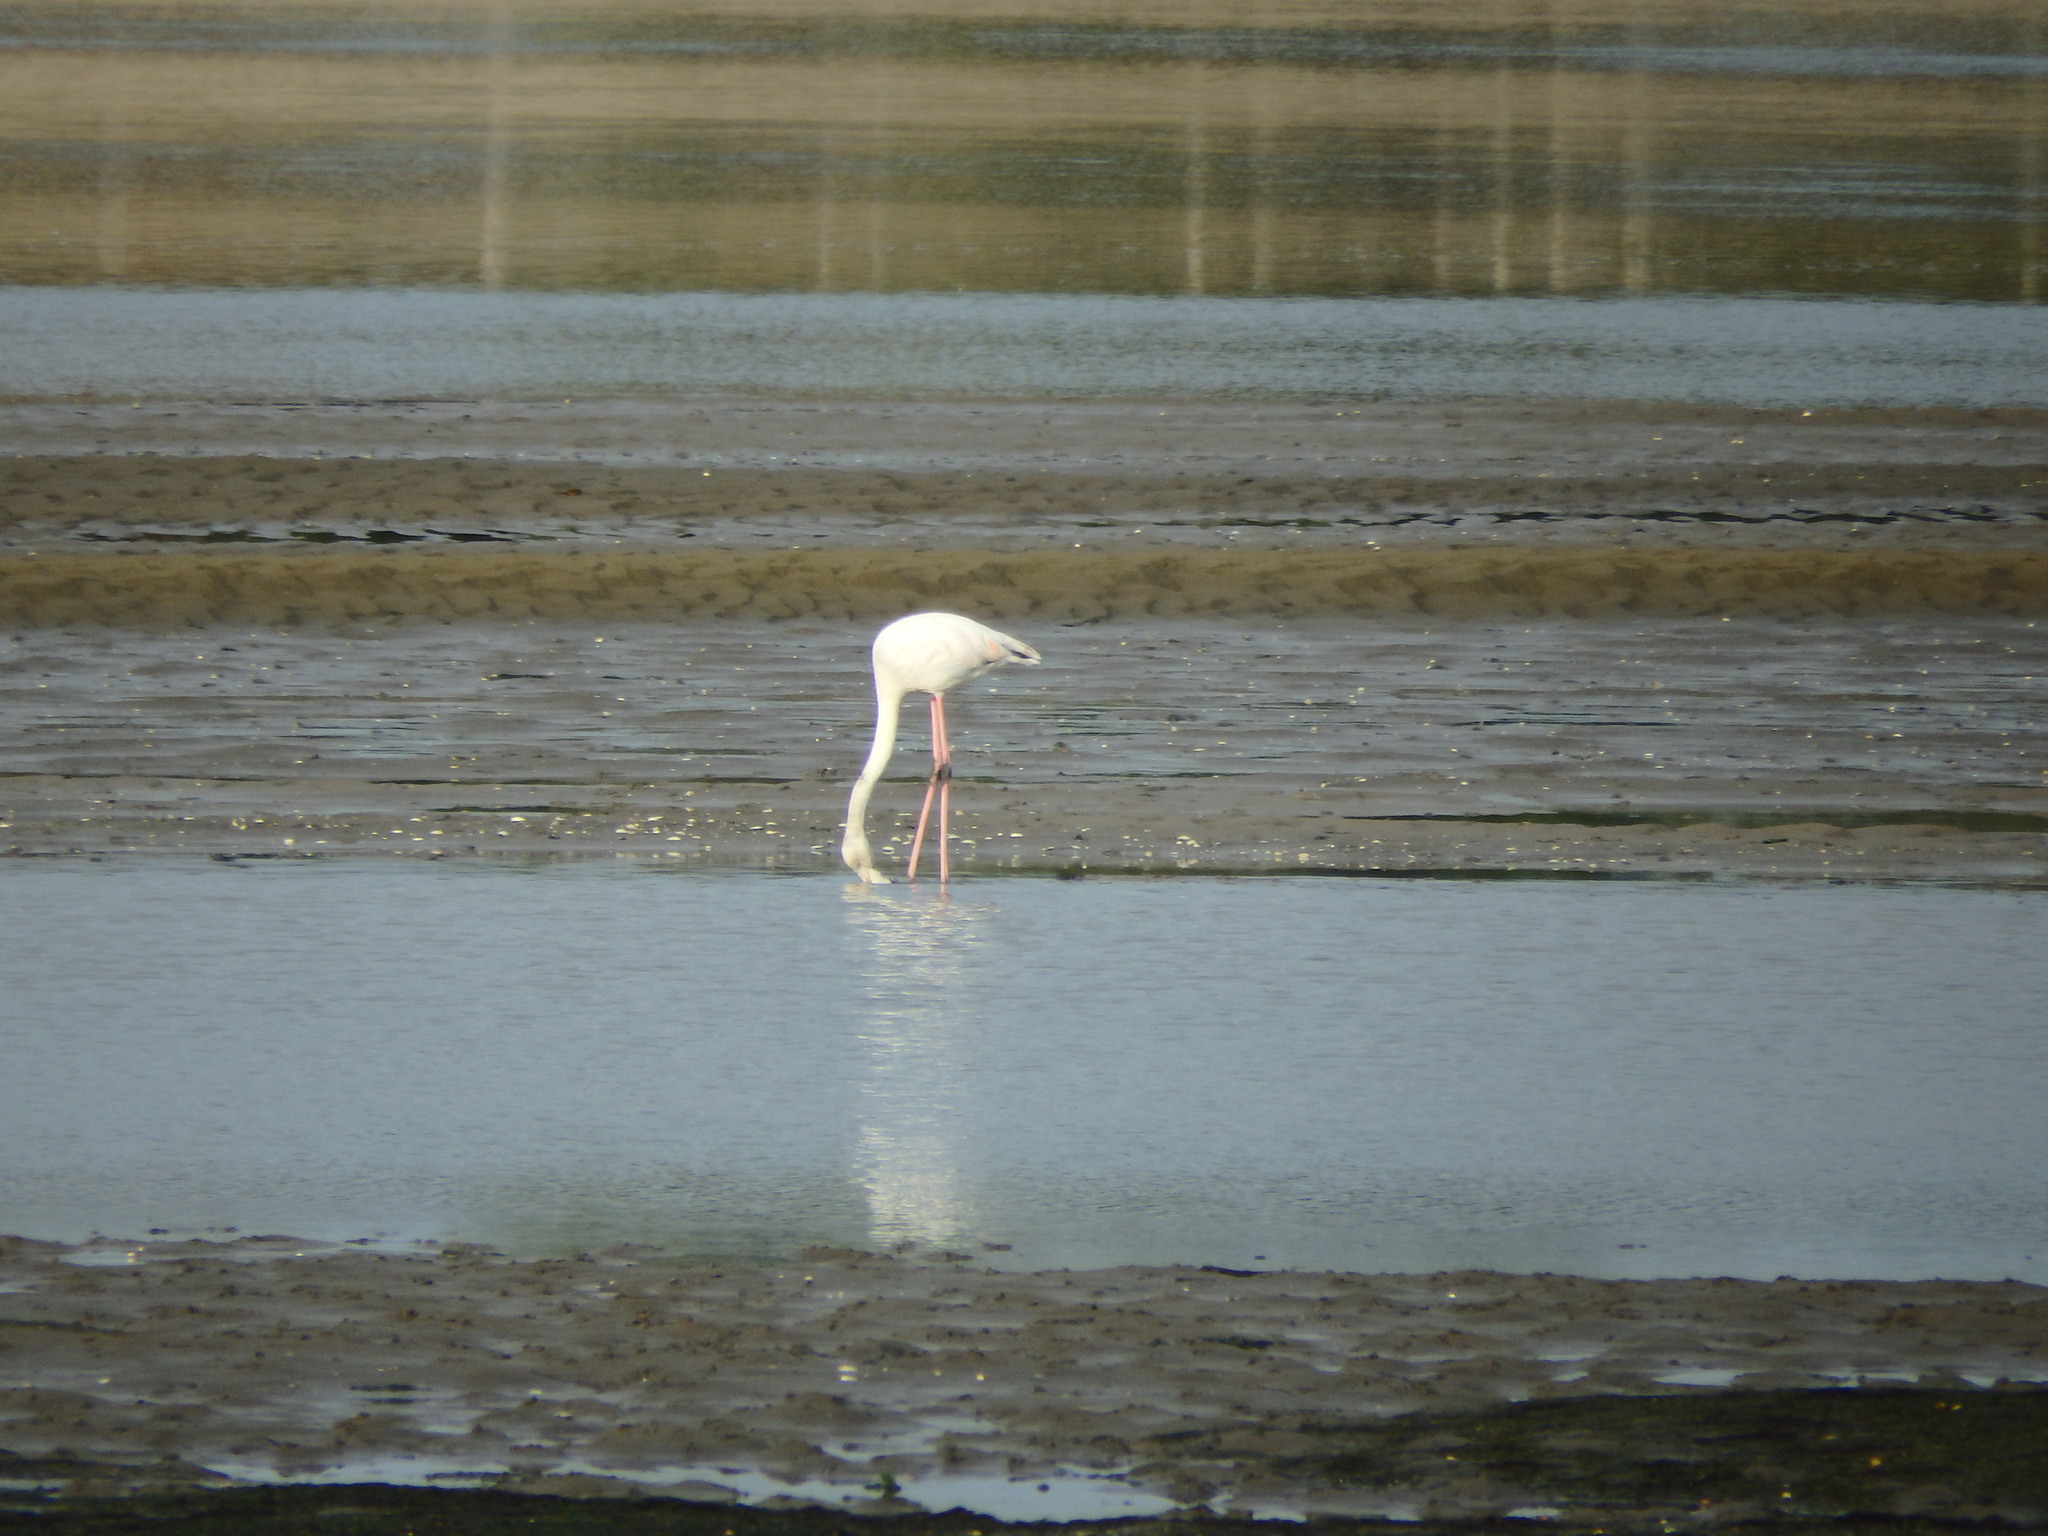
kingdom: Animalia
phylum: Chordata
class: Aves
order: Phoenicopteriformes
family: Phoenicopteridae
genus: Phoenicopterus
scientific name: Phoenicopterus roseus
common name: Greater flamingo
